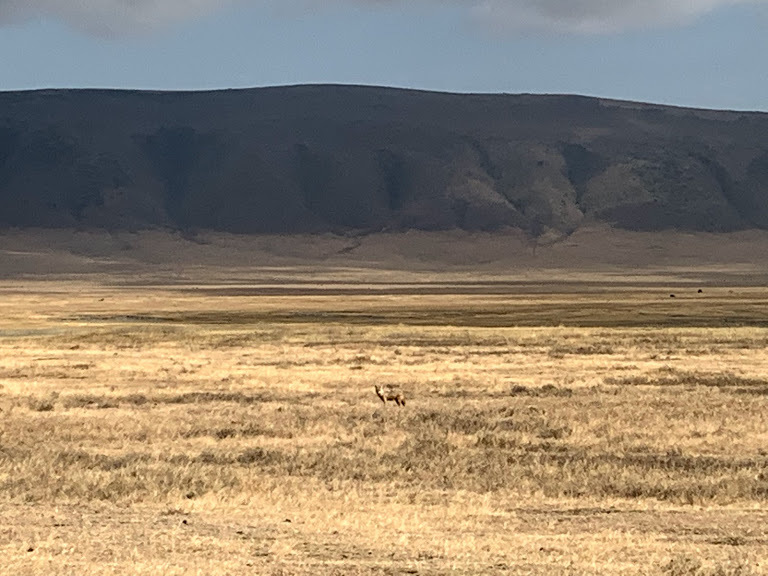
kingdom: Animalia
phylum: Chordata
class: Mammalia
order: Carnivora
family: Canidae
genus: Canis
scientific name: Canis lupaster
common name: African golden wolf
